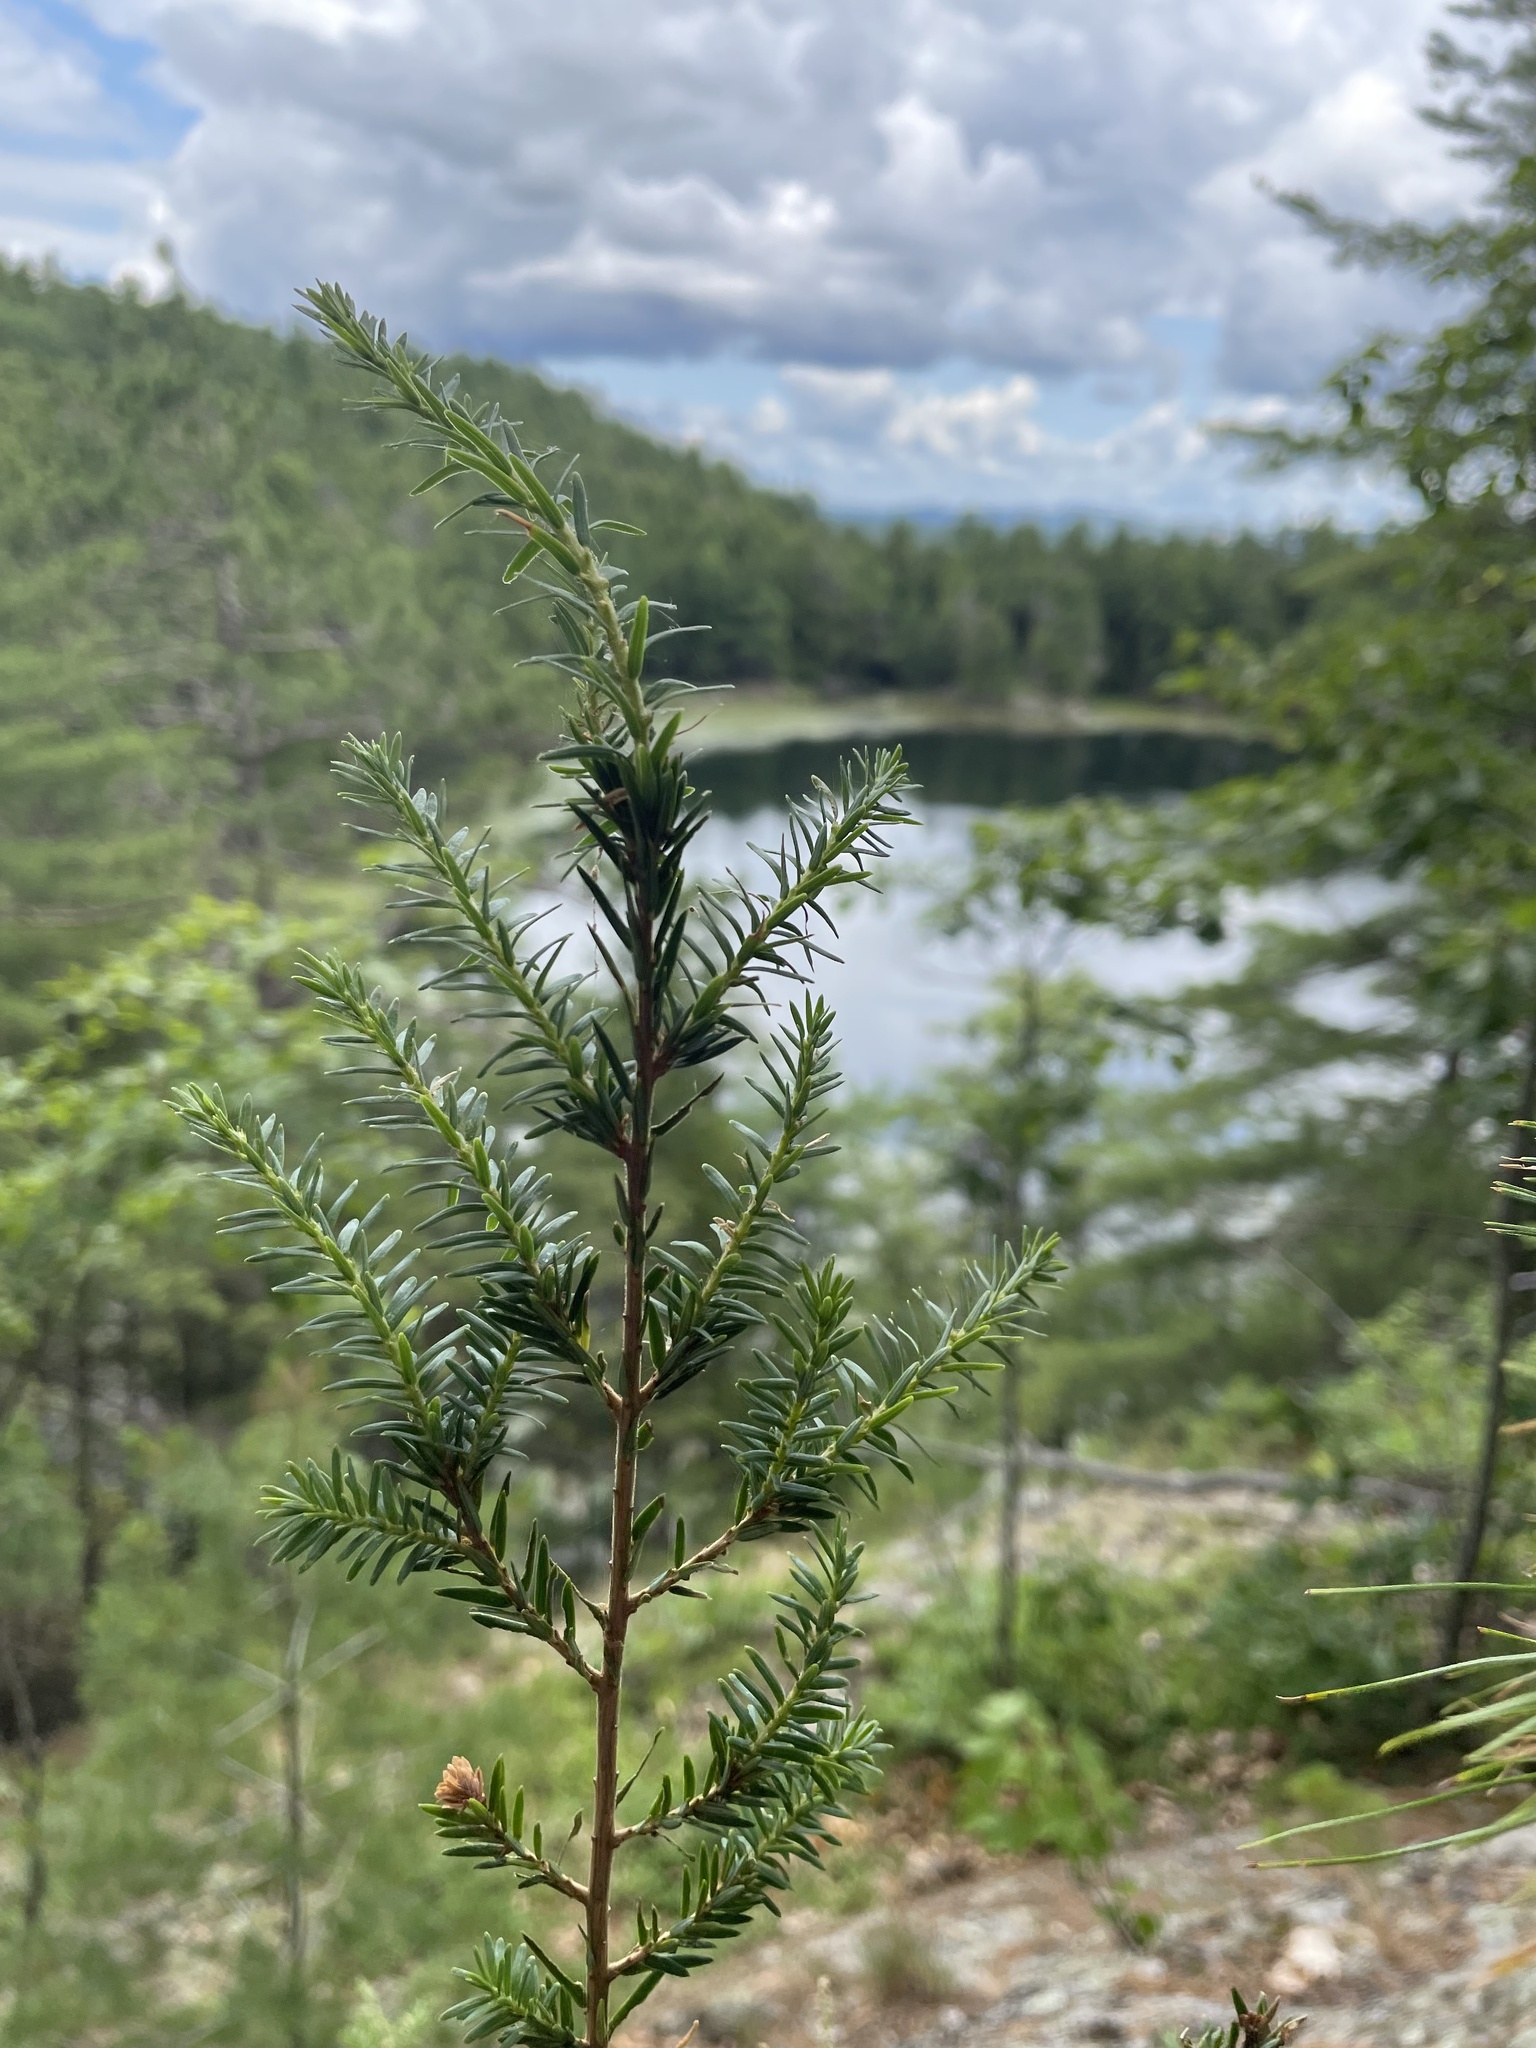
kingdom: Plantae
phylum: Tracheophyta
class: Pinopsida
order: Pinales
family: Pinaceae
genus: Tsuga
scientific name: Tsuga canadensis
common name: Eastern hemlock
